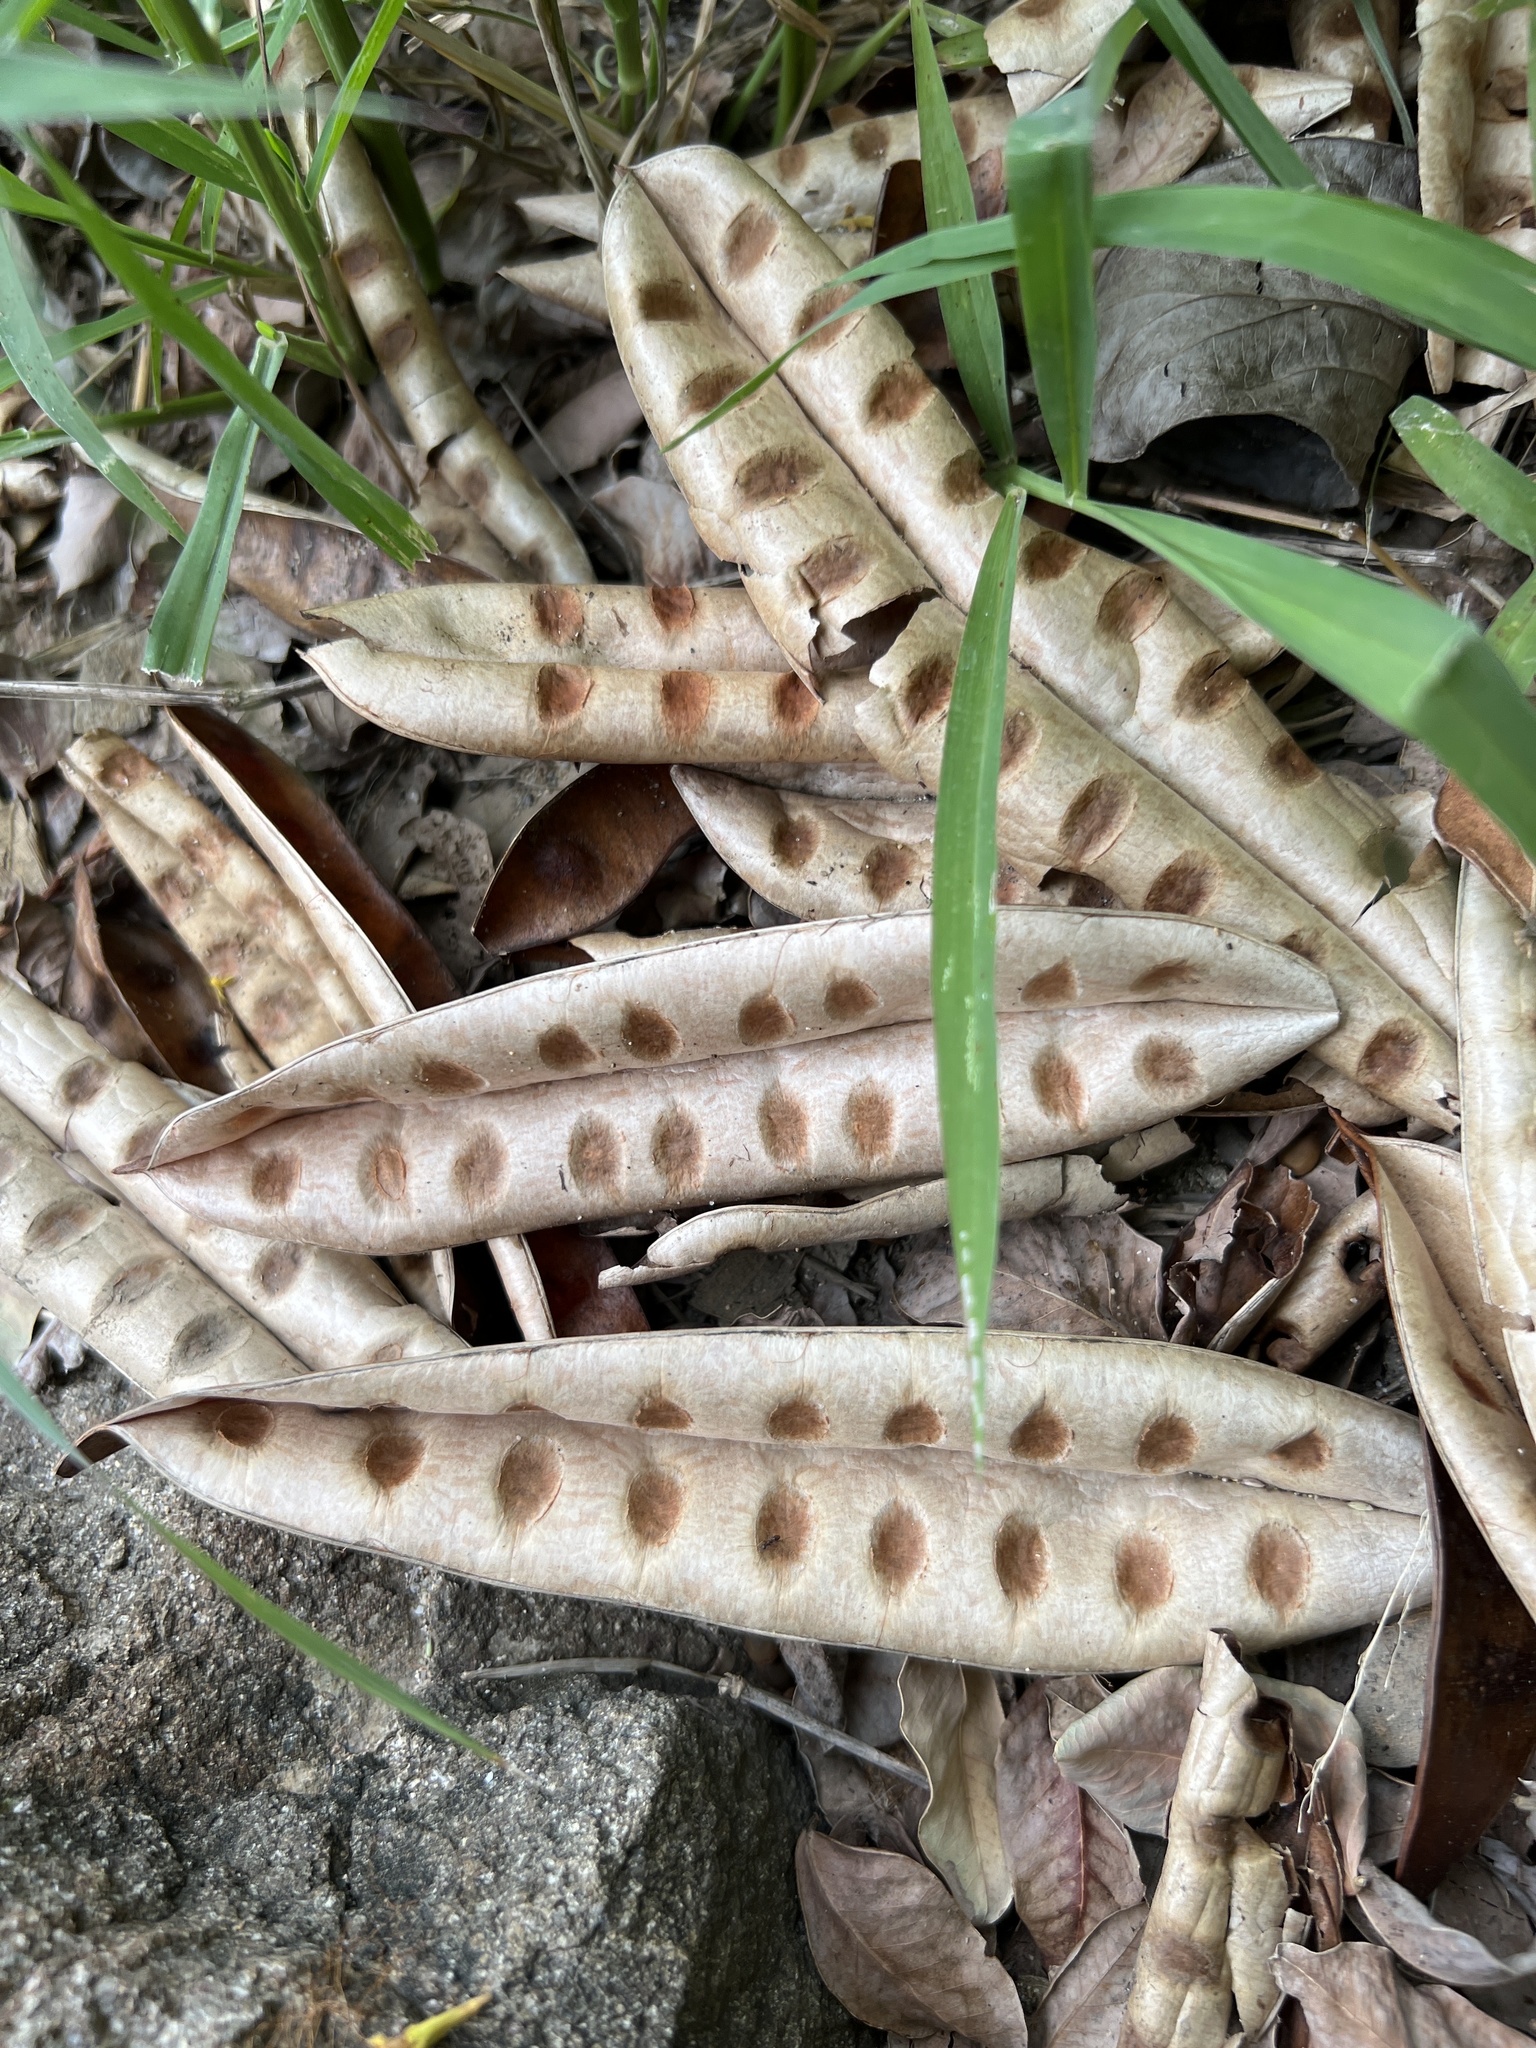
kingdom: Plantae
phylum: Tracheophyta
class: Magnoliopsida
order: Fabales
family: Fabaceae
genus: Albizia
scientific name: Albizia procera
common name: Tall albizia
